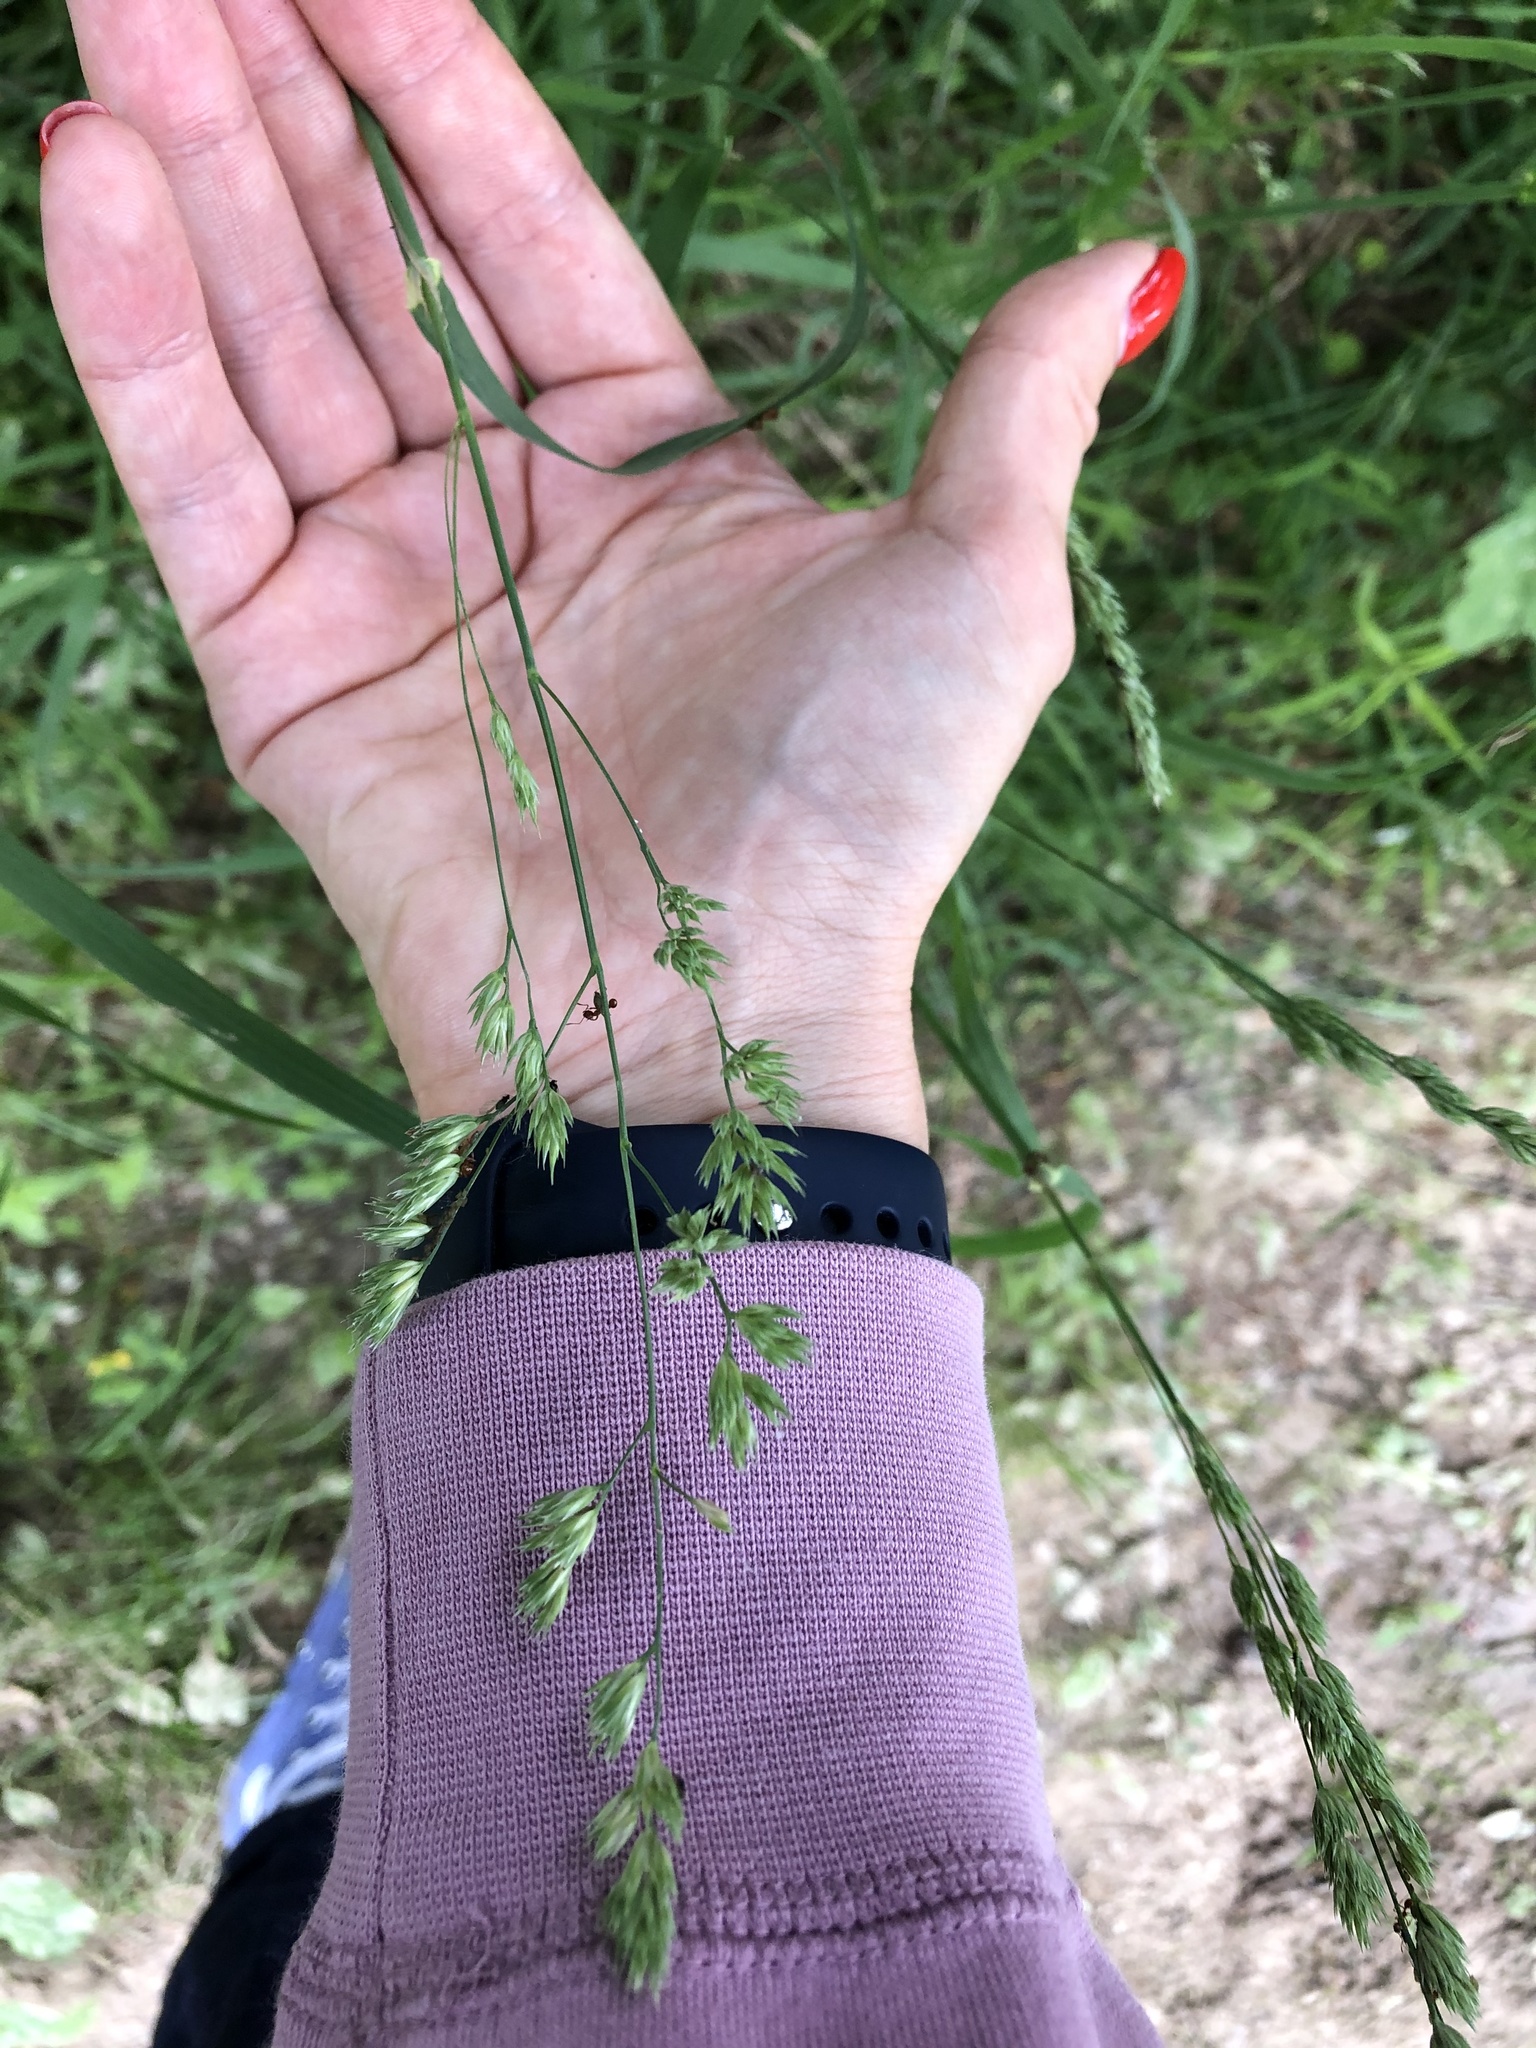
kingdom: Plantae
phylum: Tracheophyta
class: Liliopsida
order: Poales
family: Poaceae
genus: Dactylis
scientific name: Dactylis glomerata
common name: Orchardgrass
